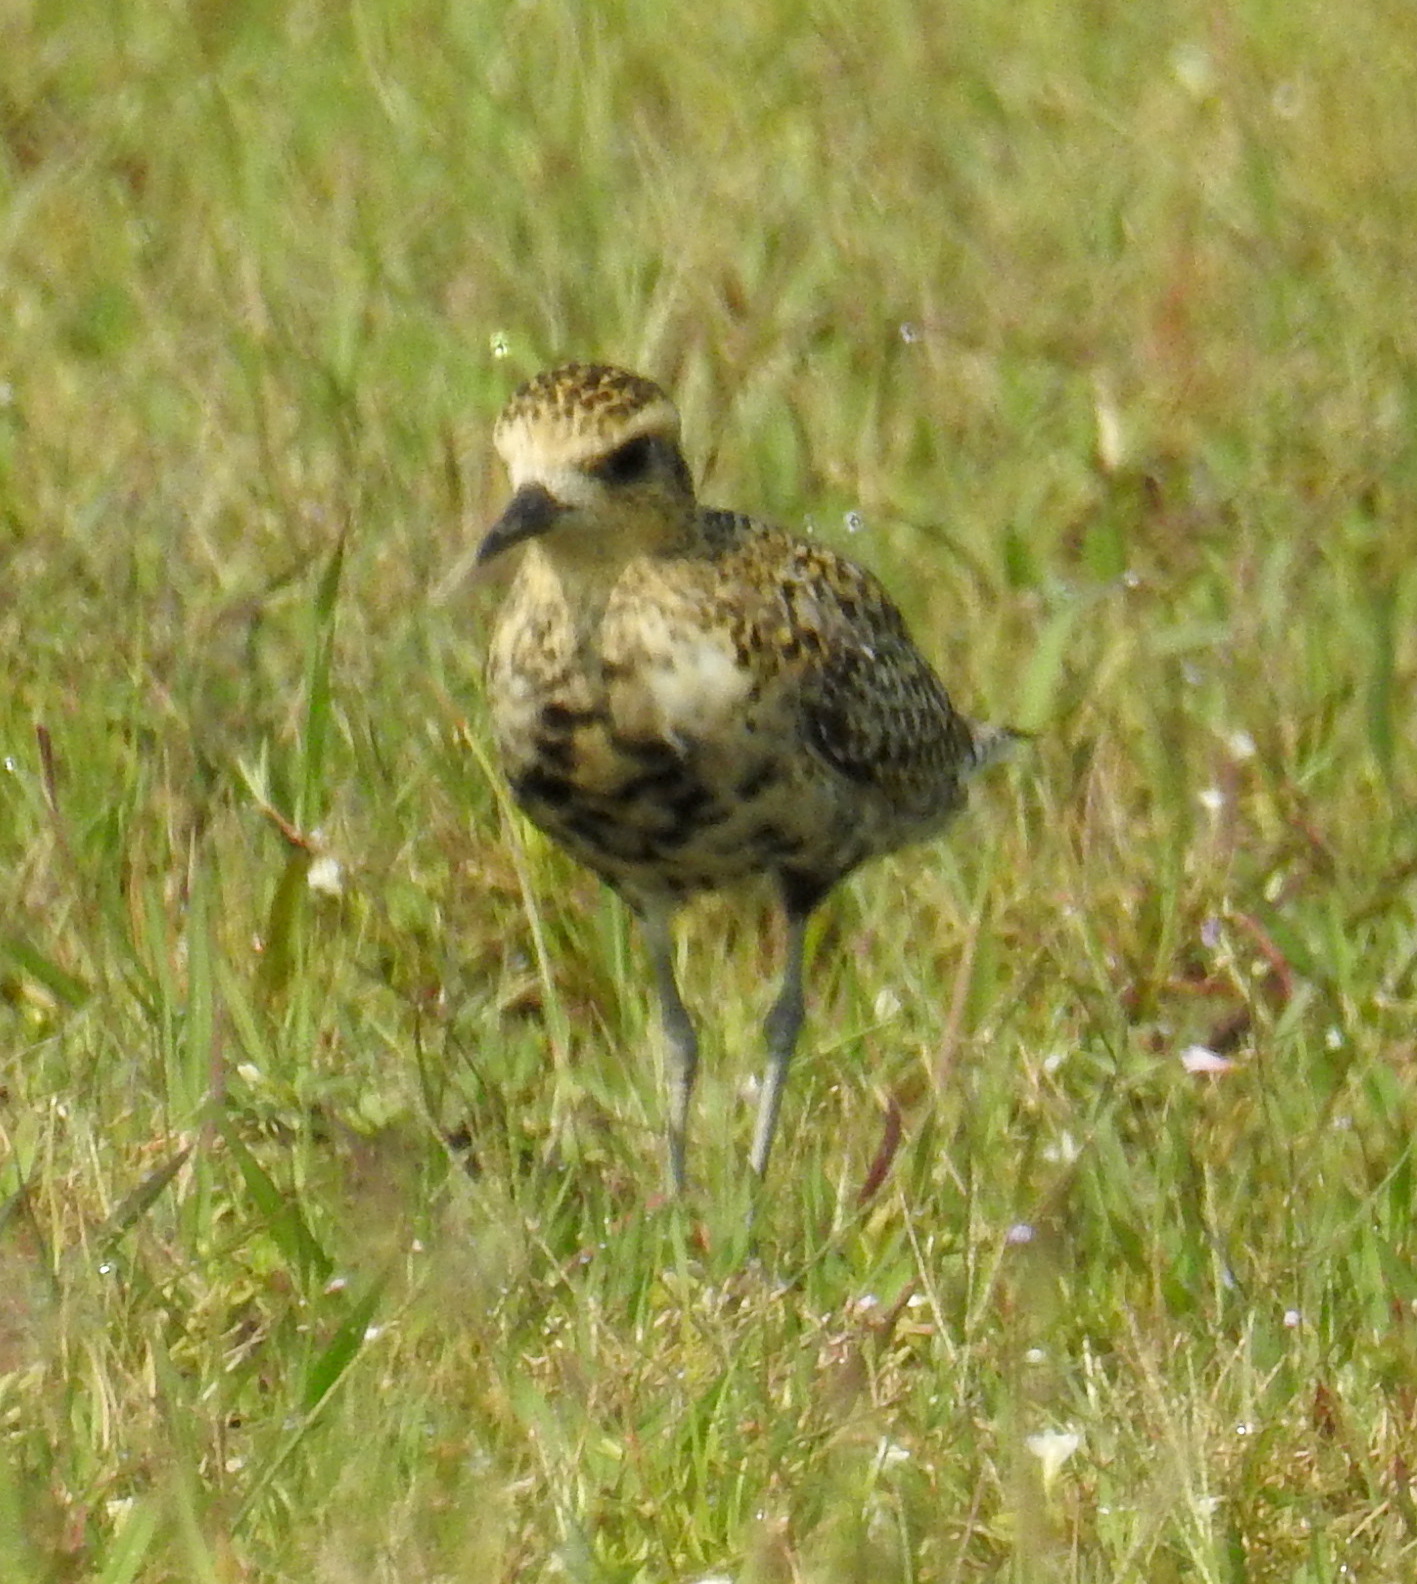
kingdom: Animalia
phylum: Chordata
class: Aves
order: Charadriiformes
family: Charadriidae
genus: Pluvialis
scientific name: Pluvialis fulva
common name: Pacific golden plover
